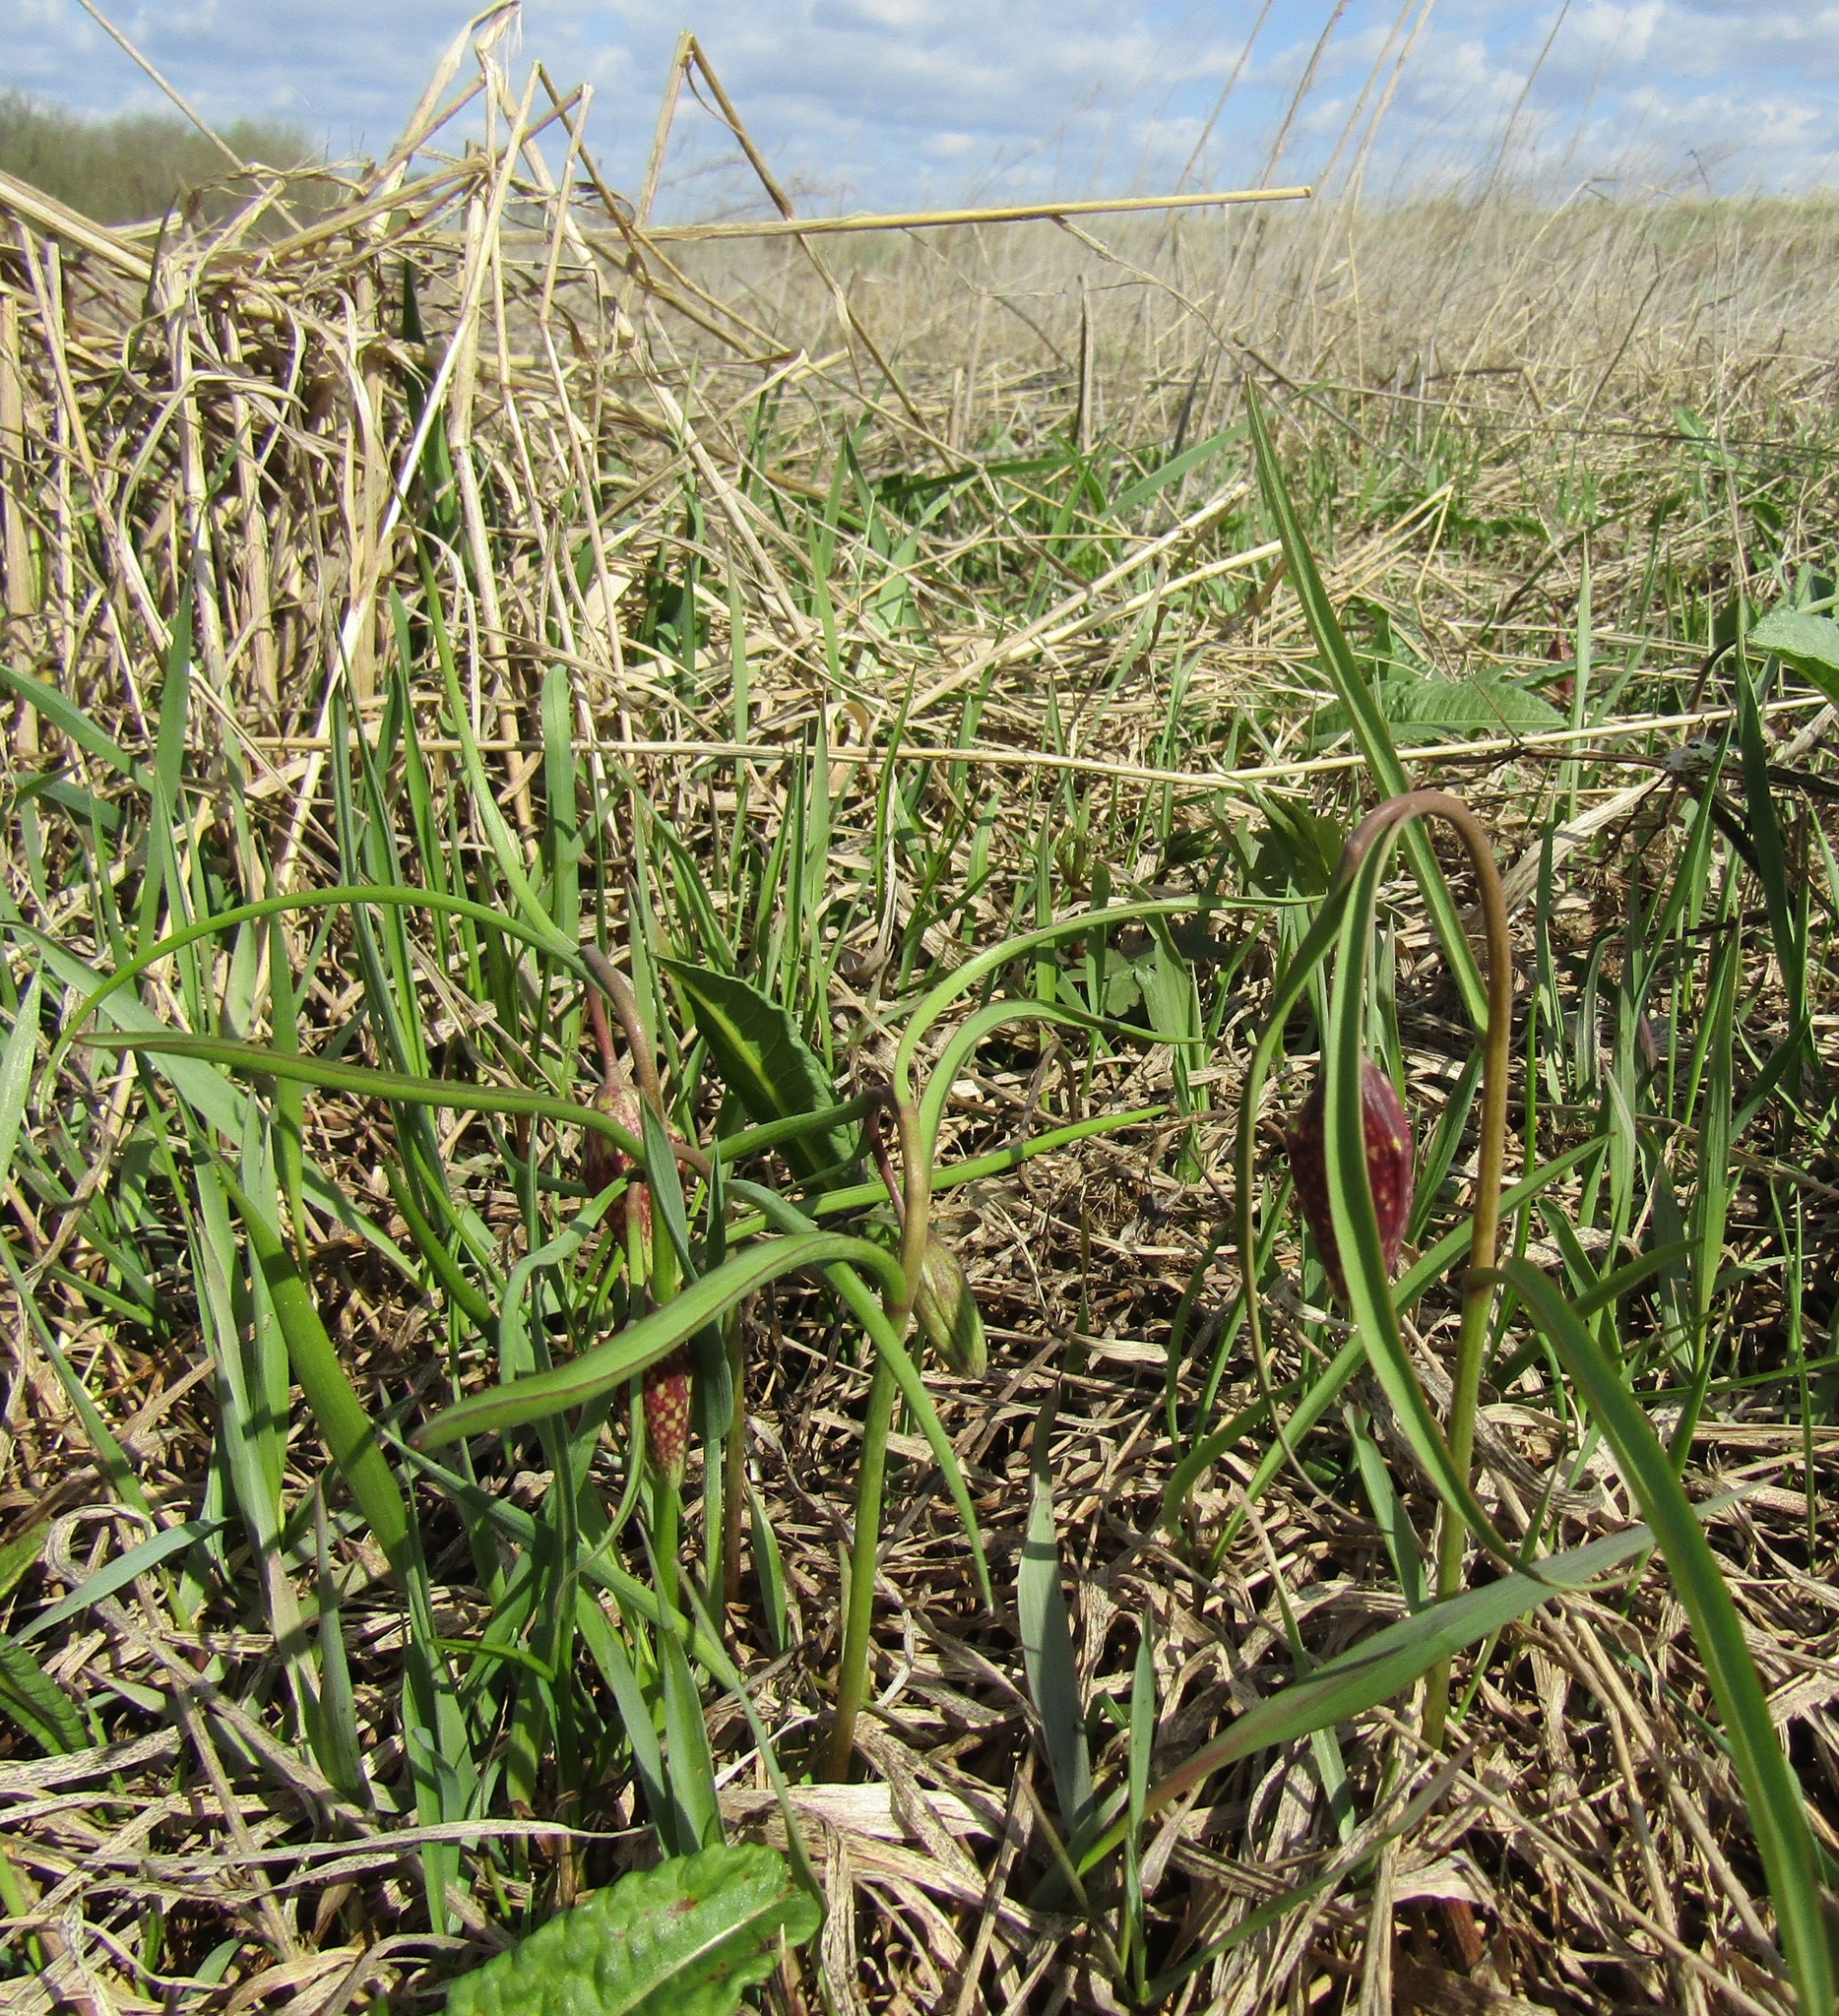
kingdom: Plantae
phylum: Tracheophyta
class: Liliopsida
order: Liliales
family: Liliaceae
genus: Fritillaria
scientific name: Fritillaria meleagris
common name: Fritillary
